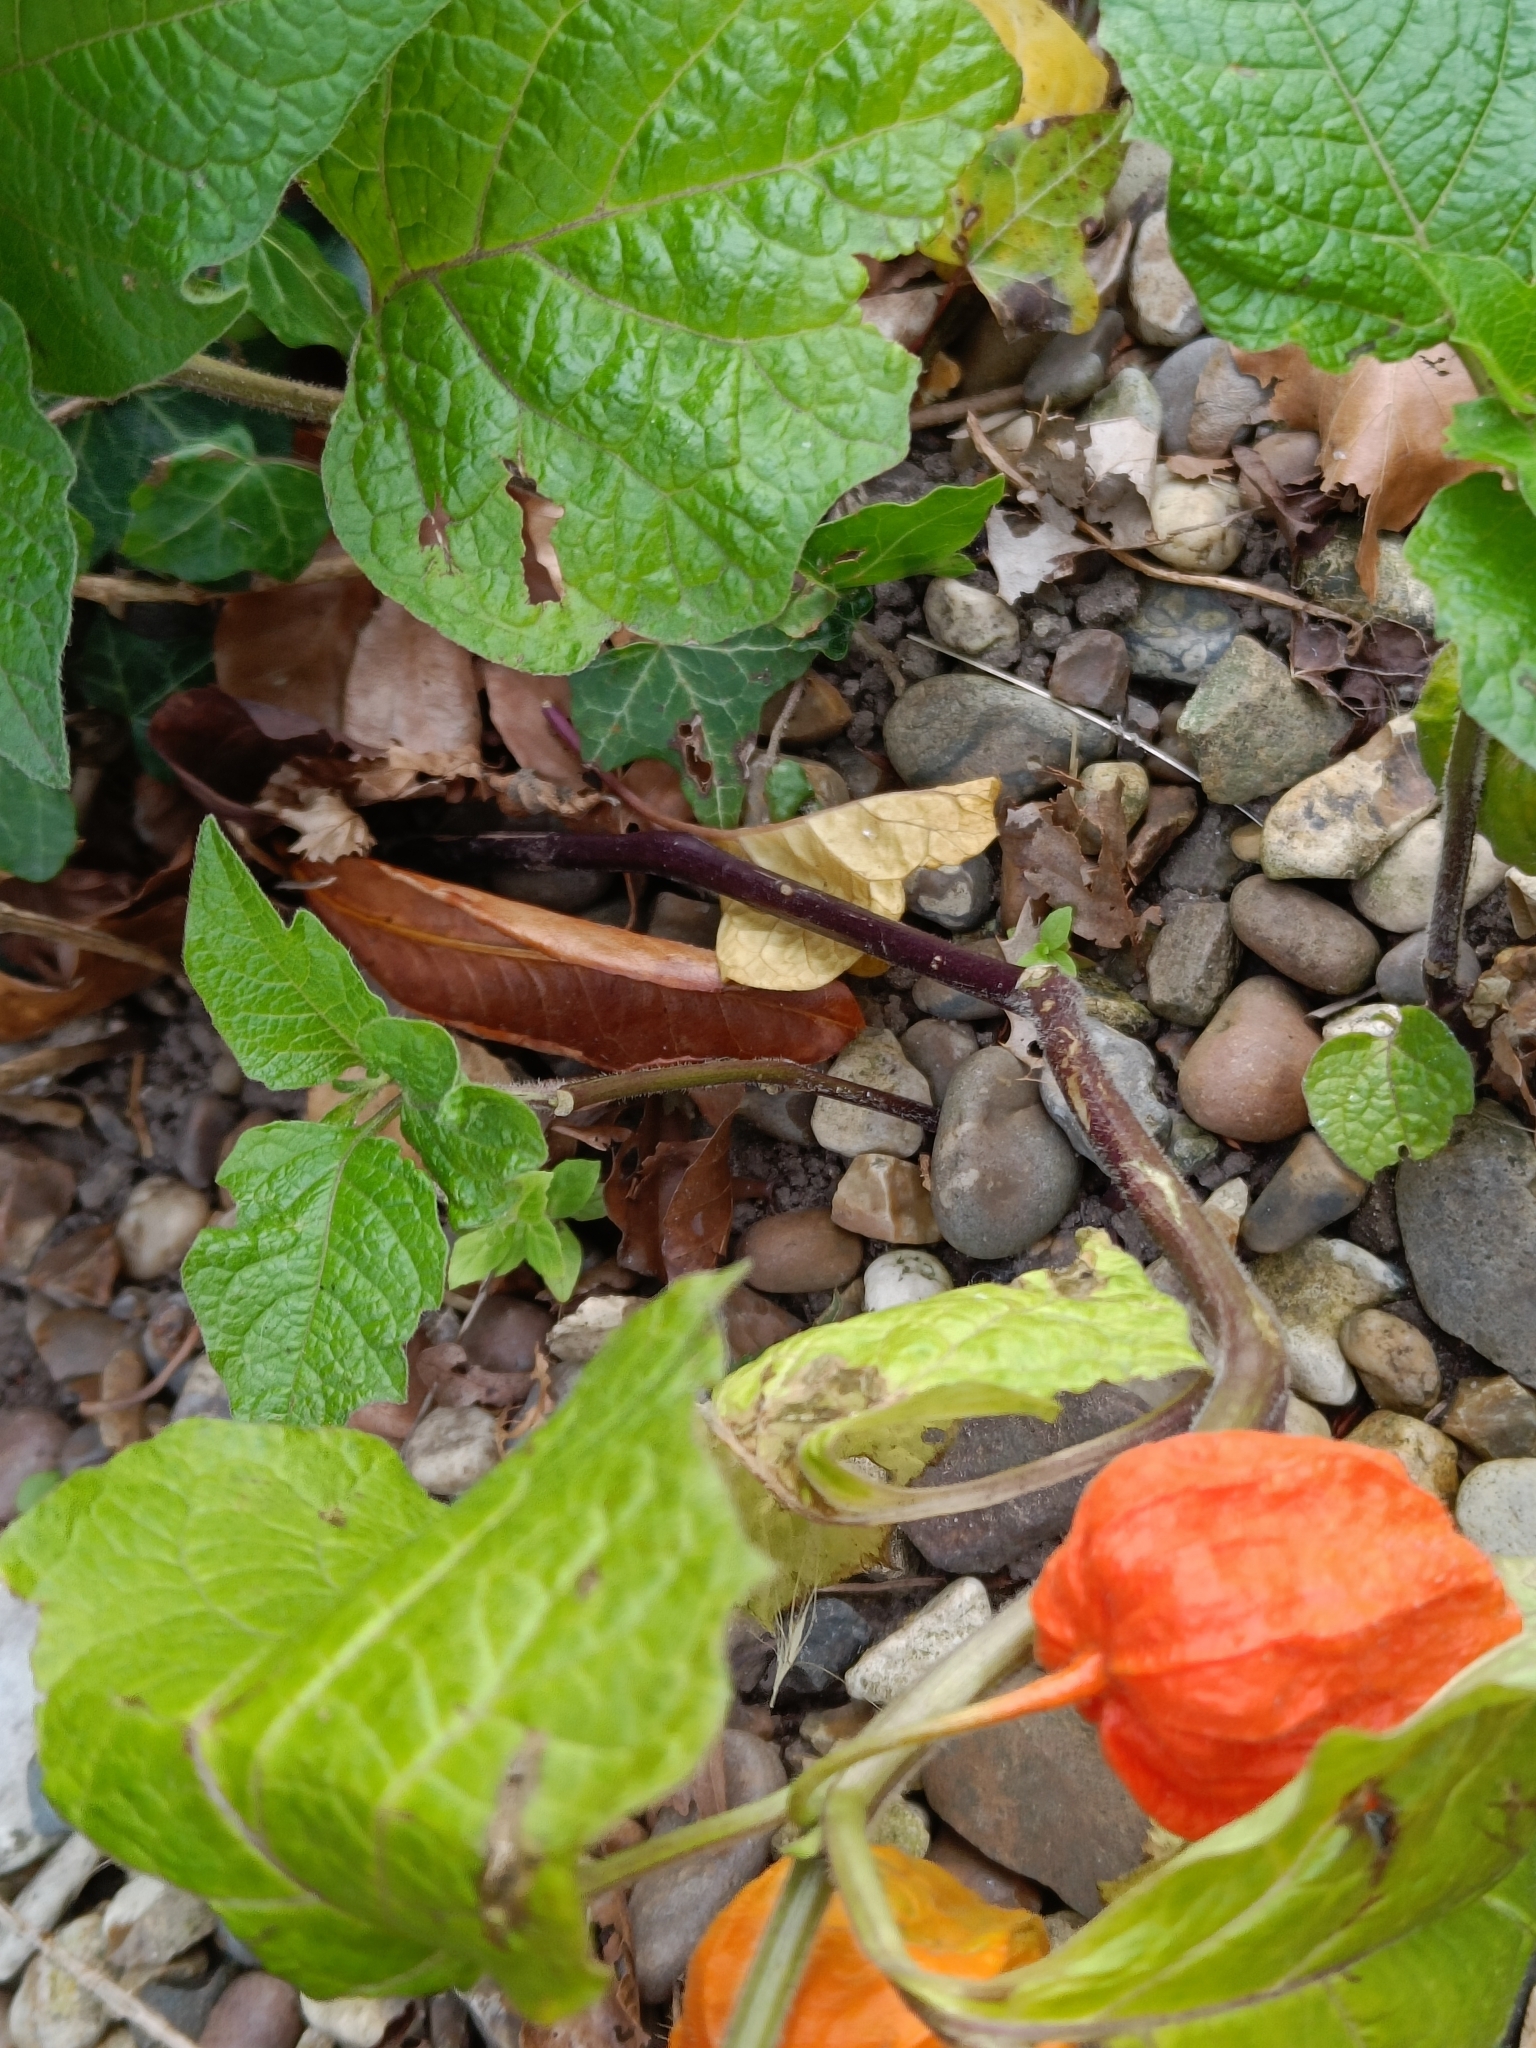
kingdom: Plantae
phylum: Tracheophyta
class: Magnoliopsida
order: Solanales
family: Solanaceae
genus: Alkekengi
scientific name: Alkekengi officinarum
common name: Japanese-lantern
